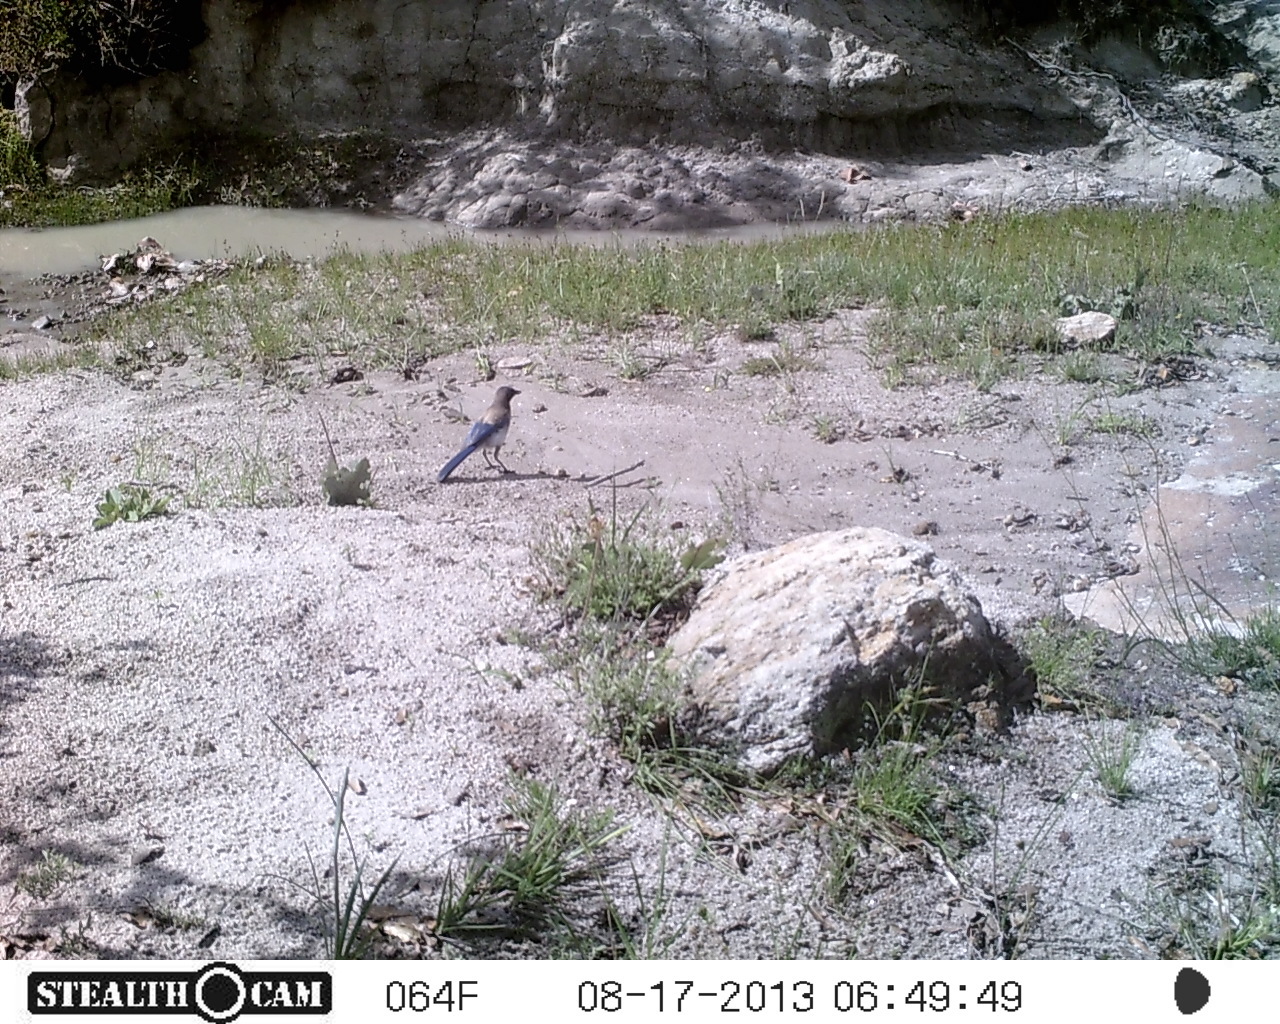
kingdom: Animalia
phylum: Chordata
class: Aves
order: Passeriformes
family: Corvidae
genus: Aphelocoma
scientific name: Aphelocoma woodhouseii
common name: Woodhouse's scrub-jay
